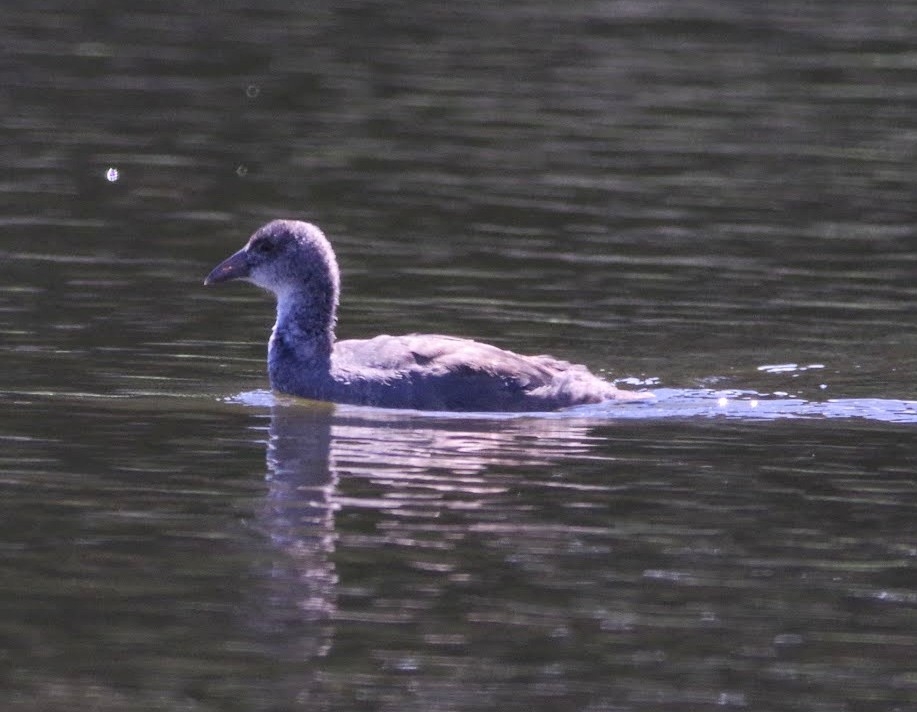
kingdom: Animalia
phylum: Chordata
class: Aves
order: Gruiformes
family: Rallidae
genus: Fulica
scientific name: Fulica americana
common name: American coot
